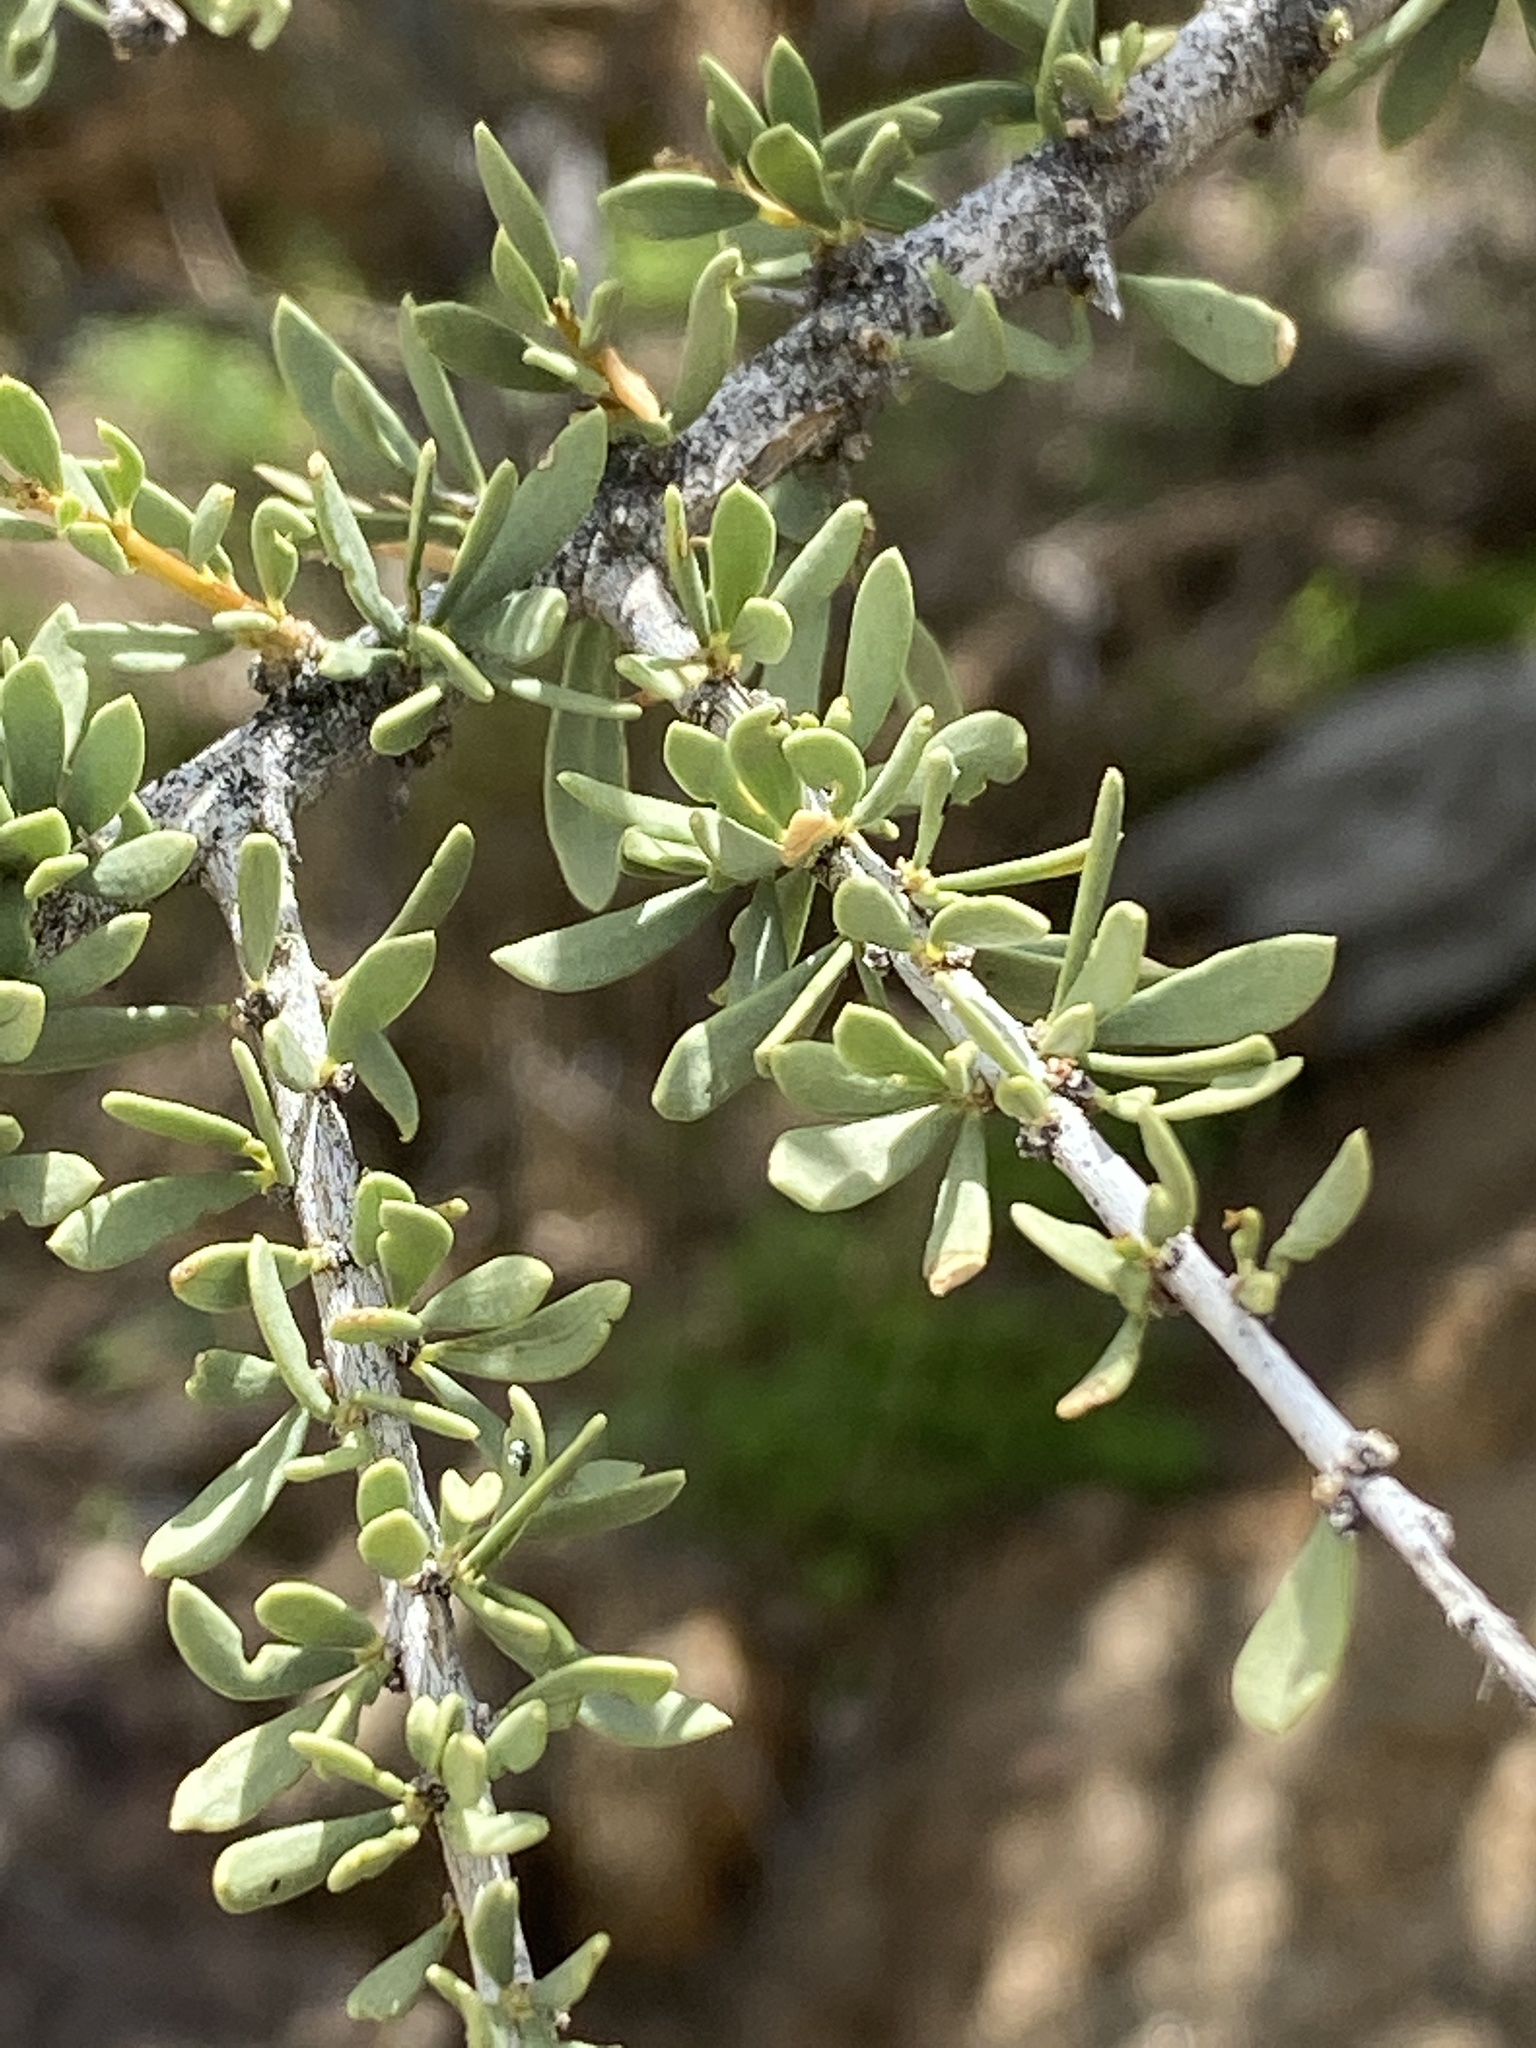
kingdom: Plantae
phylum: Tracheophyta
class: Magnoliopsida
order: Brassicales
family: Capparaceae
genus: Boscia
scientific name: Boscia albitrunca
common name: Caper bush
